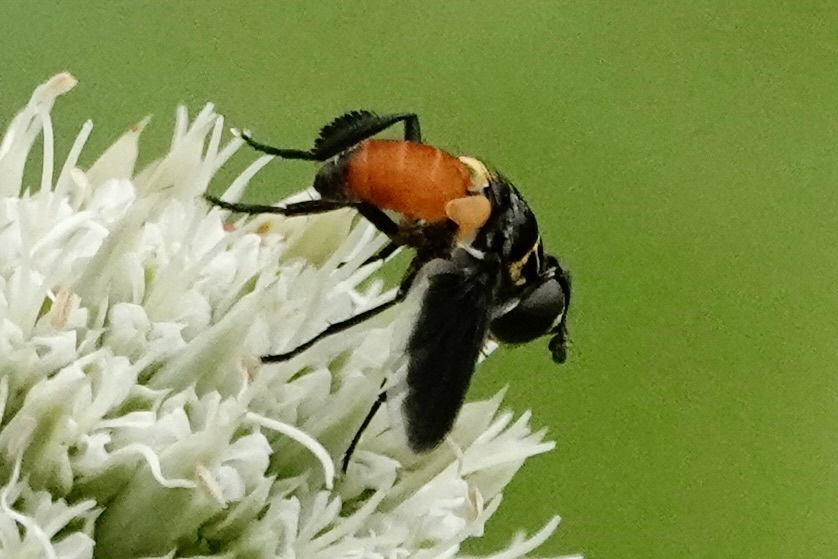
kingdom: Animalia
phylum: Arthropoda
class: Insecta
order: Diptera
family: Tachinidae
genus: Trichopoda
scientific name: Trichopoda pennipes
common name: Tachinid fly
